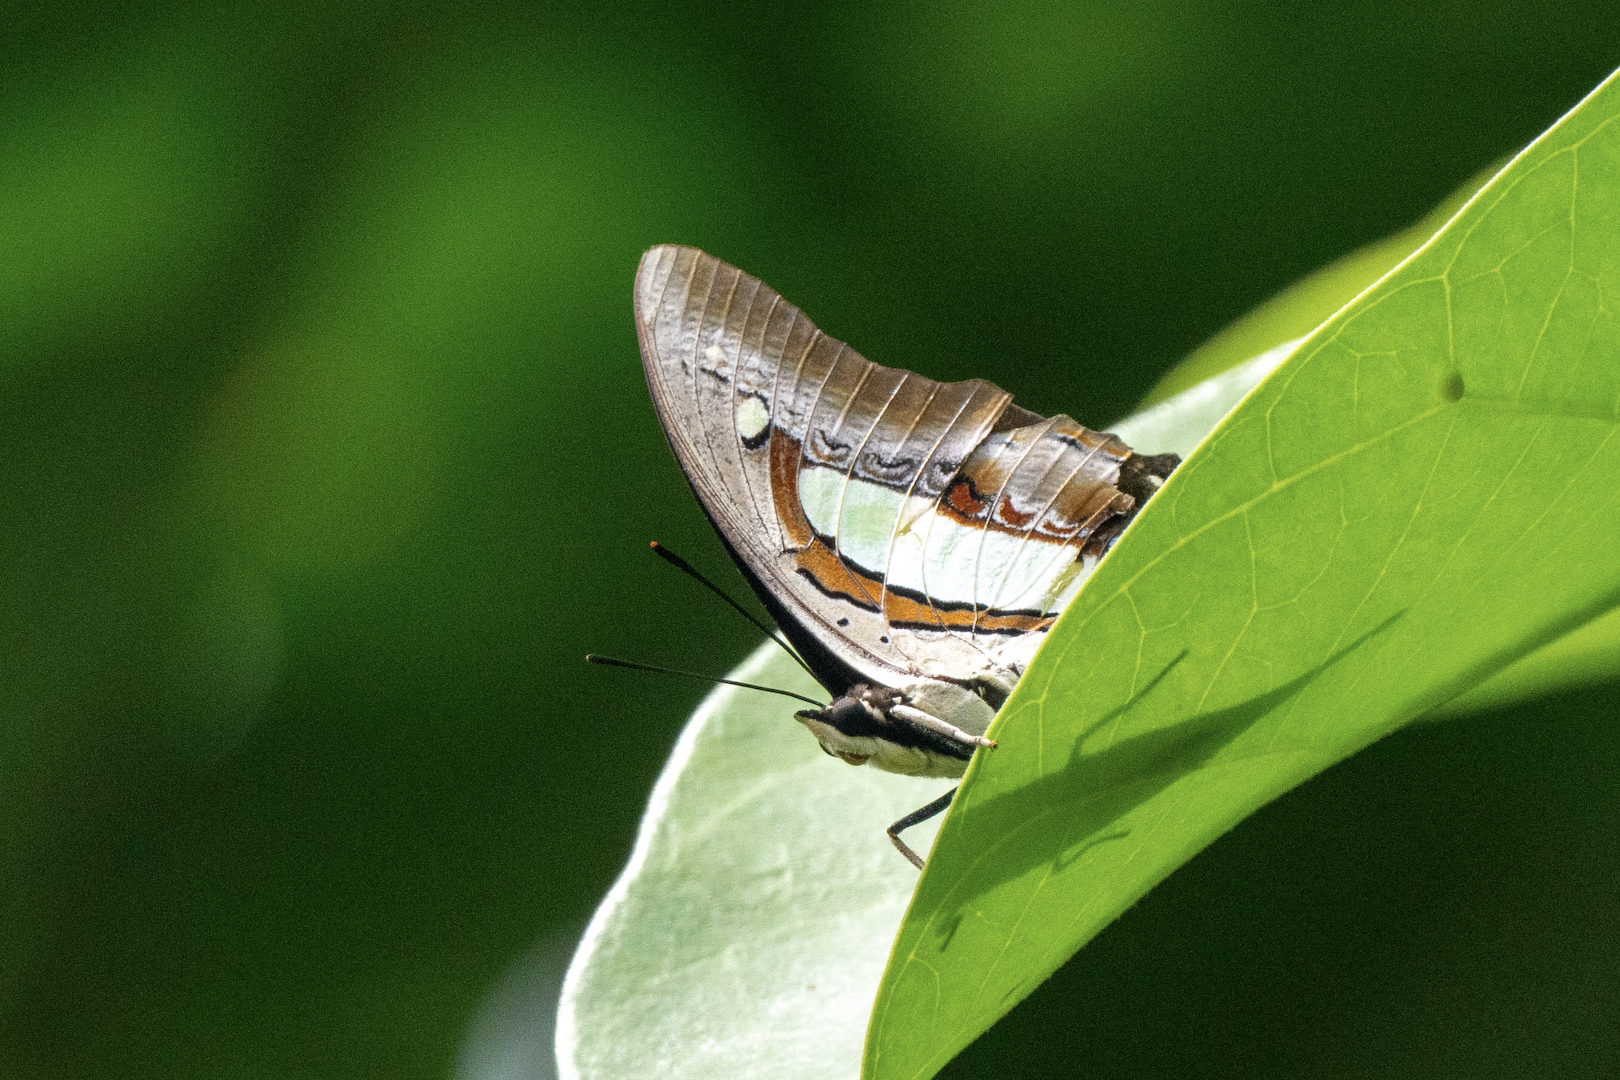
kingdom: Animalia
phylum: Arthropoda
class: Insecta
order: Lepidoptera
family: Nymphalidae
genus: Polyura
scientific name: Polyura athamas
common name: Common nawab
